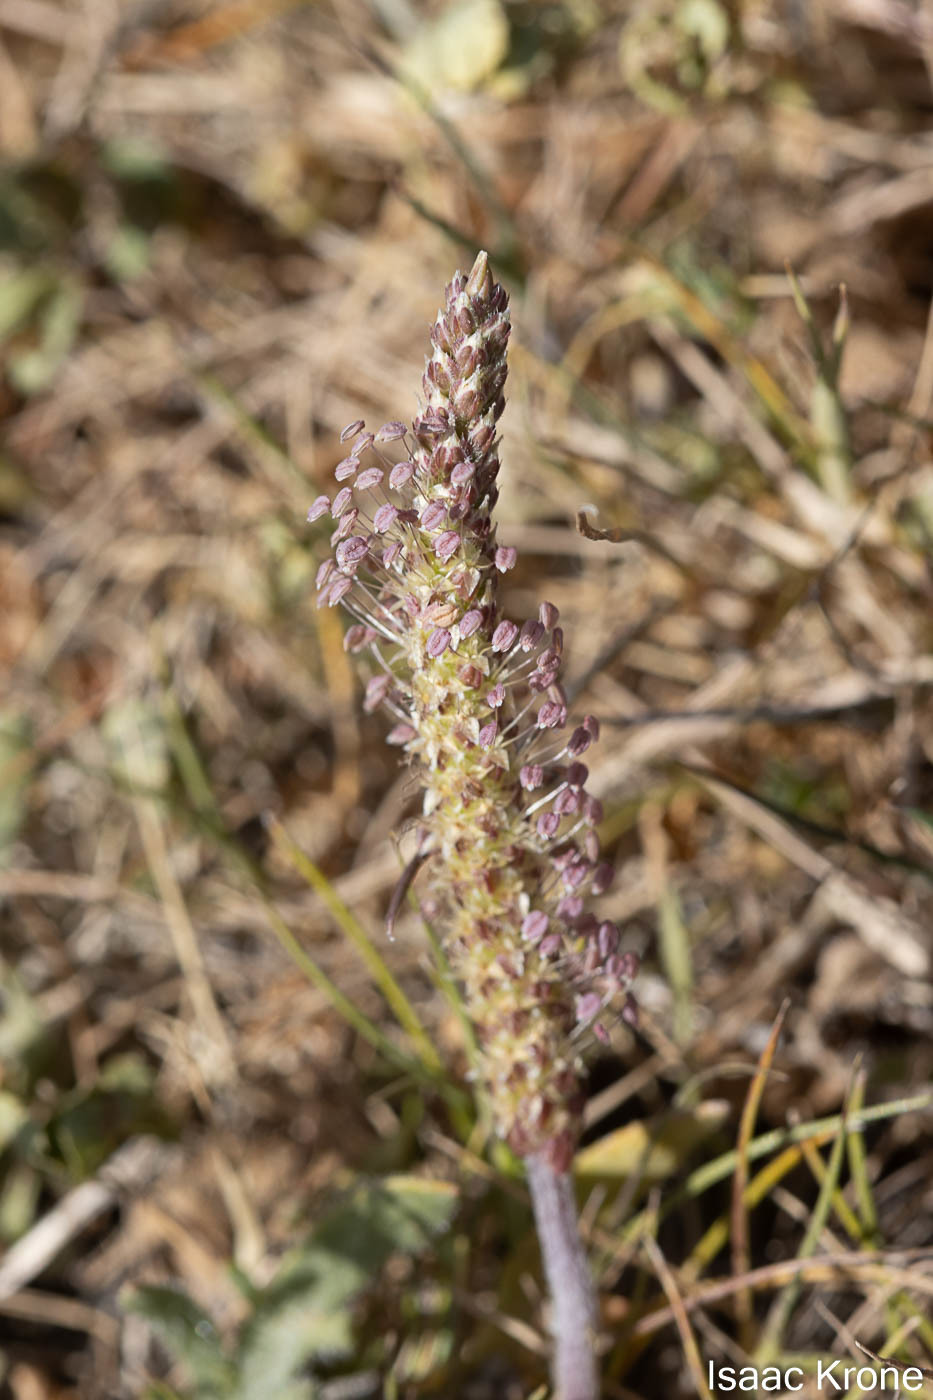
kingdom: Plantae
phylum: Tracheophyta
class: Magnoliopsida
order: Lamiales
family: Plantaginaceae
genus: Plantago
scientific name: Plantago coronopus
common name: Buck's-horn plantain
